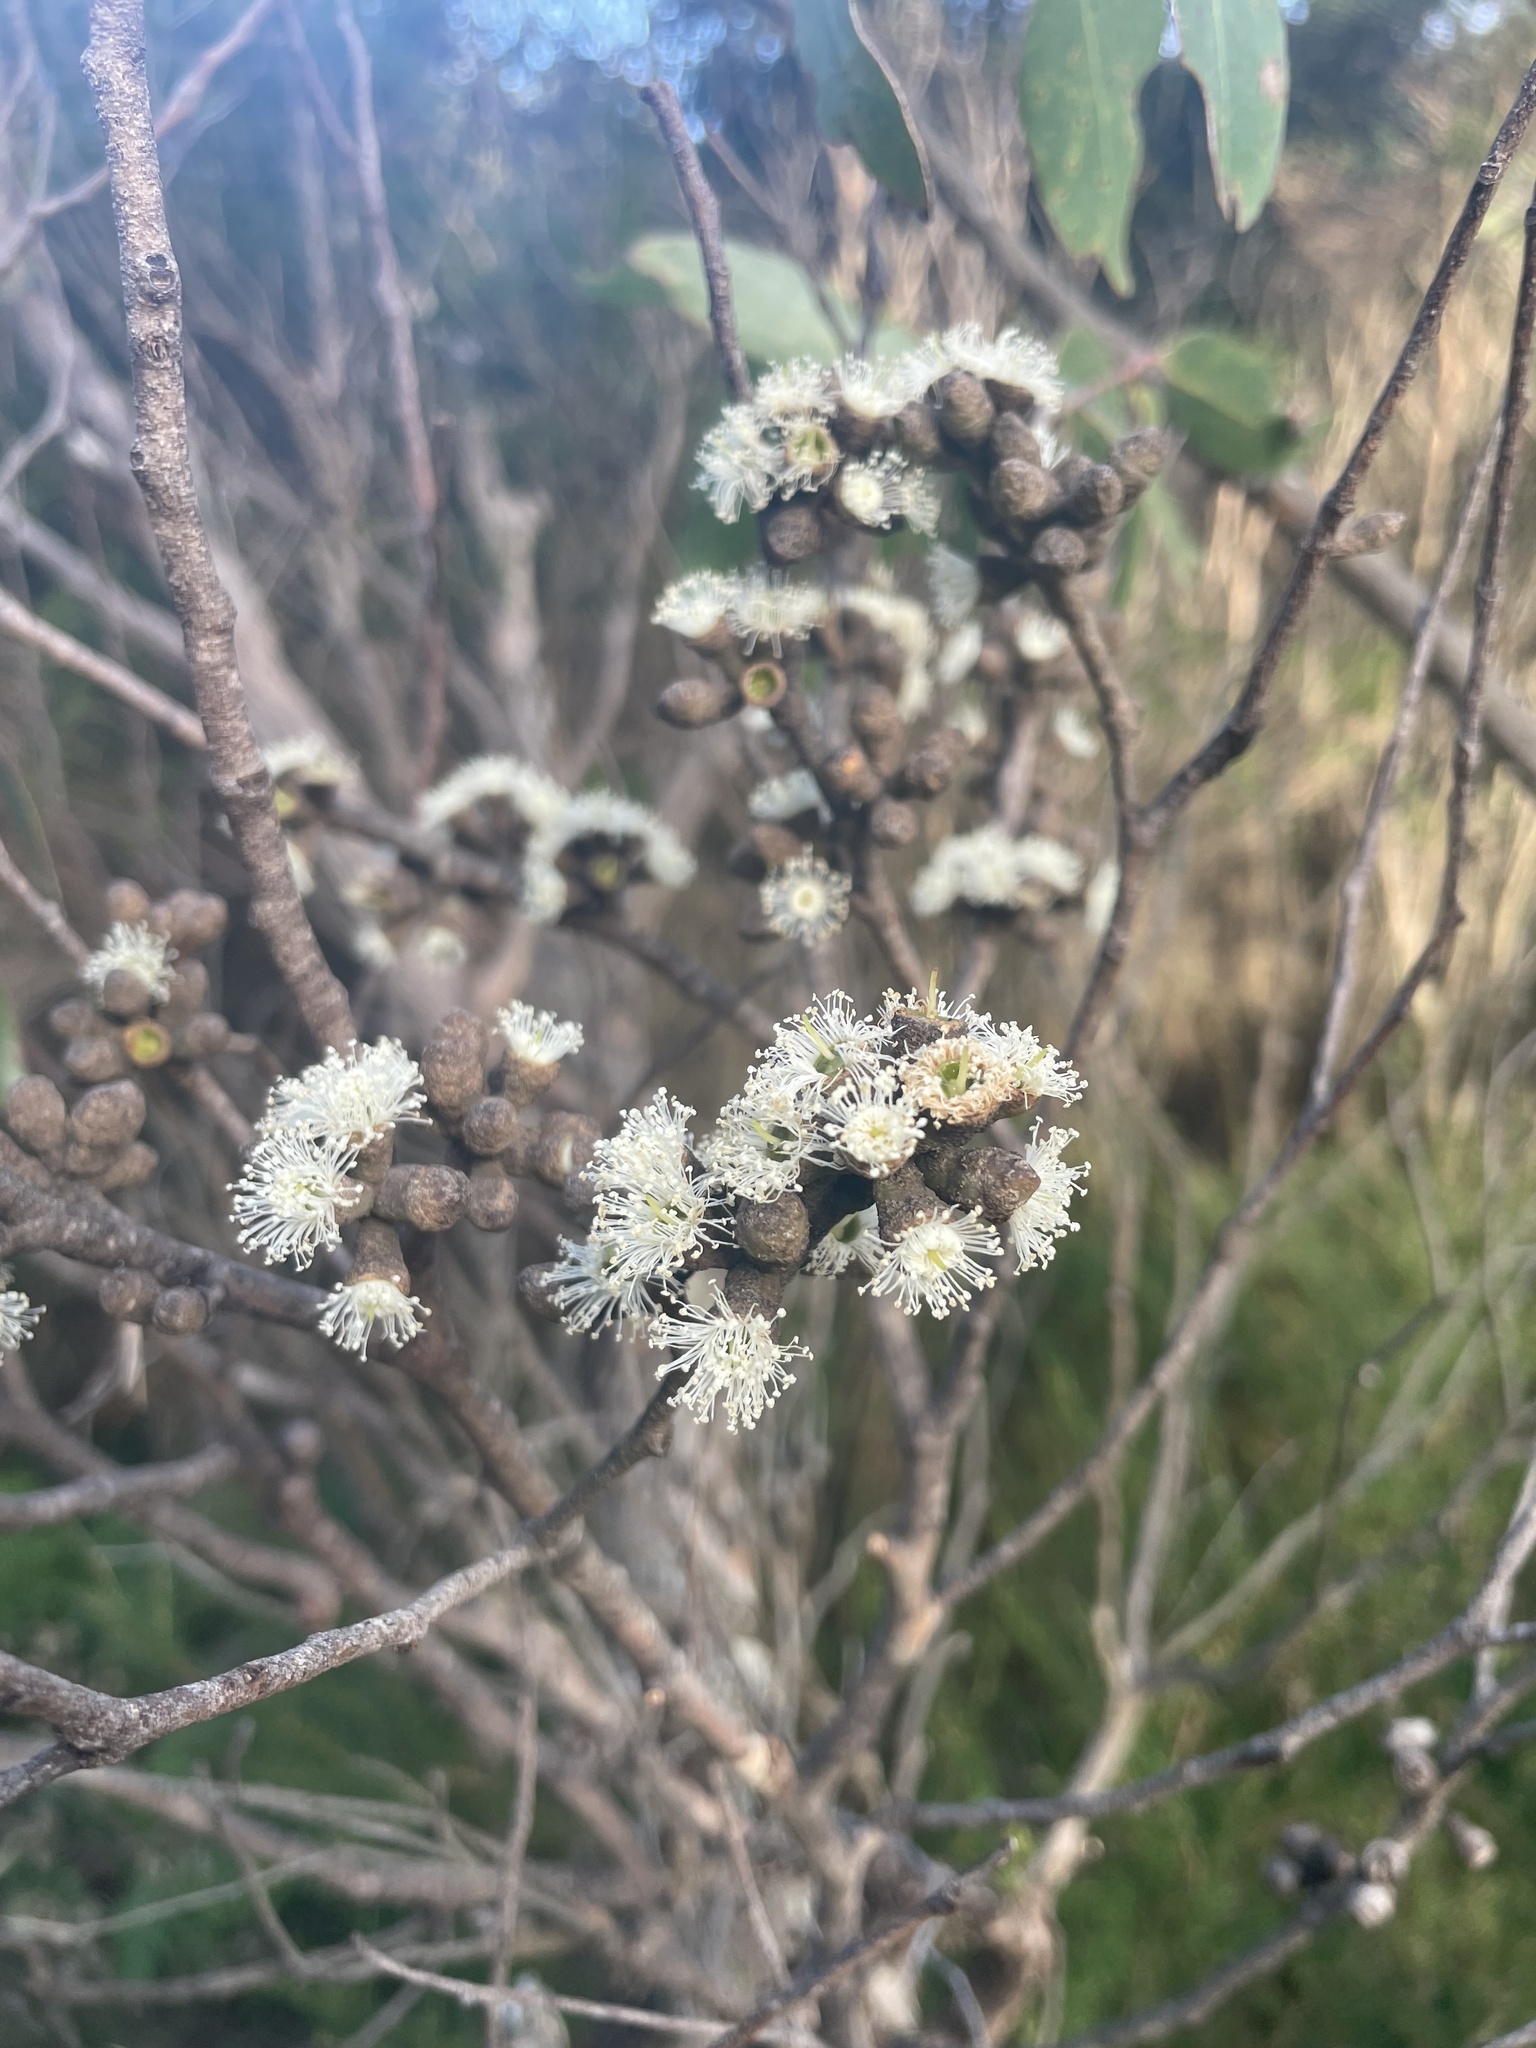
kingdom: Plantae
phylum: Tracheophyta
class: Magnoliopsida
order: Myrtales
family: Myrtaceae
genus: Eucalyptus
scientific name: Eucalyptus baxteri
